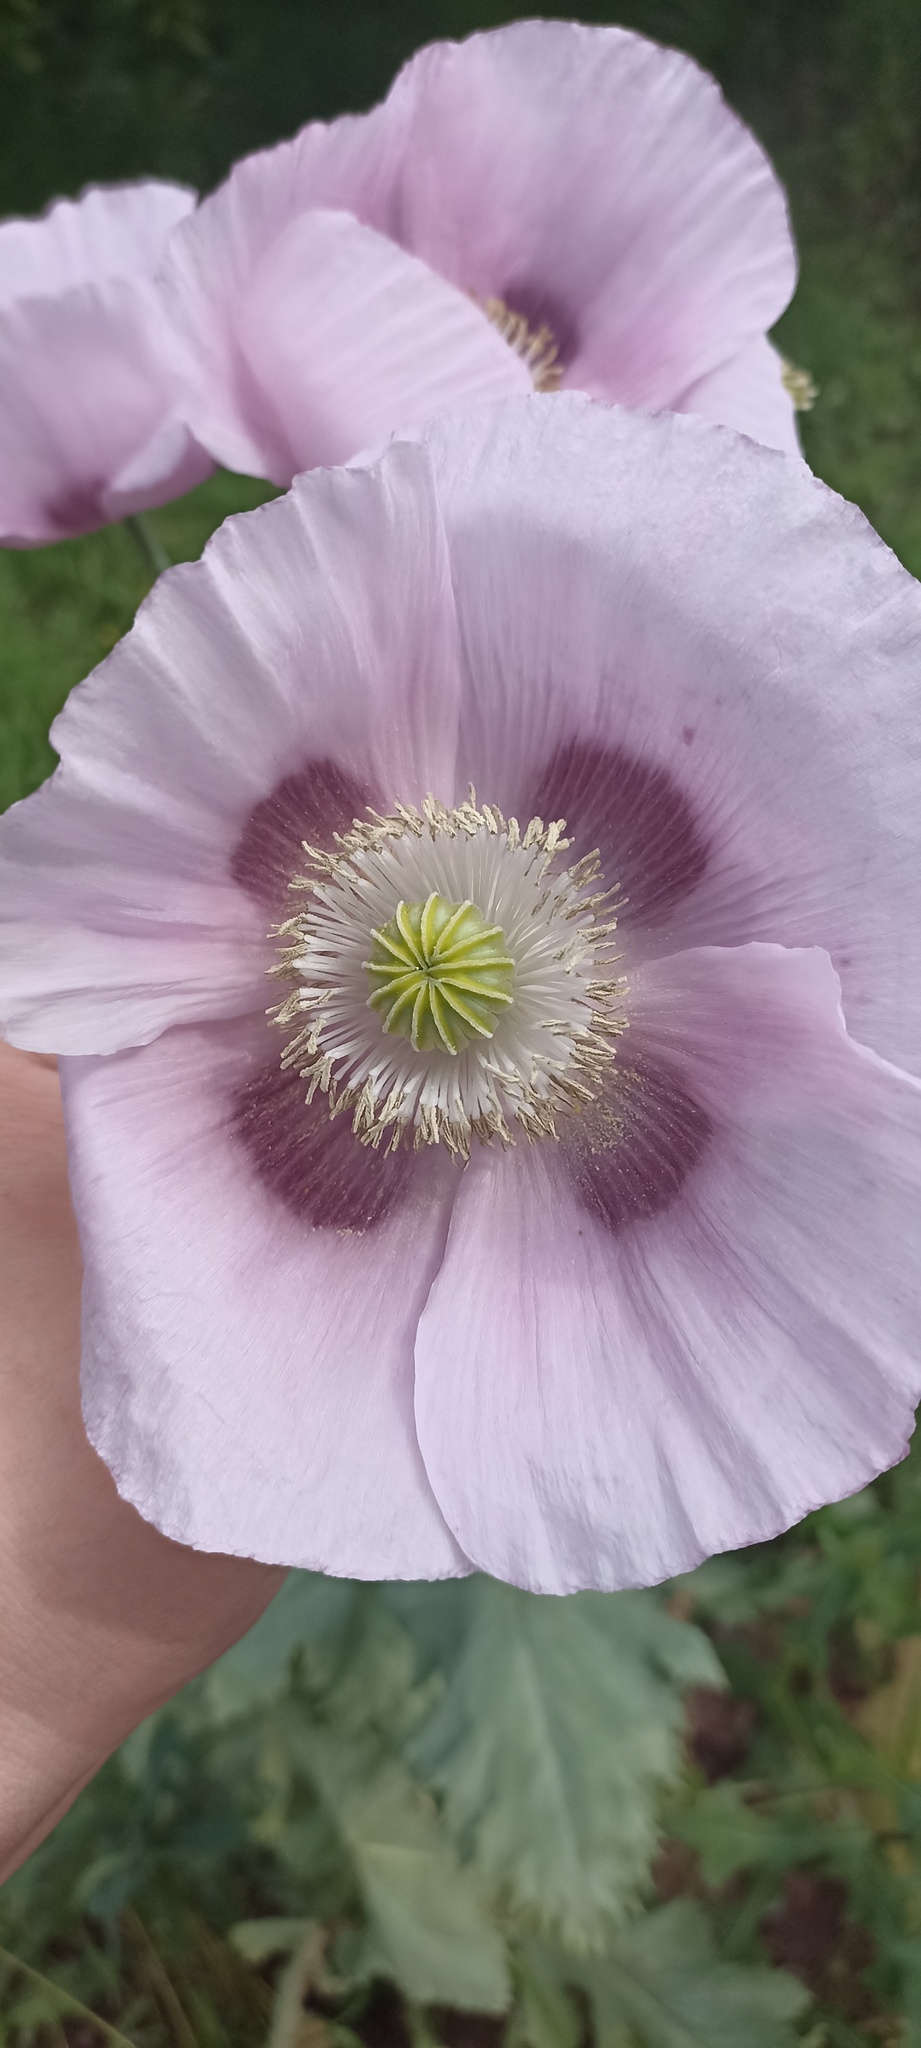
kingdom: Plantae
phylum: Tracheophyta
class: Magnoliopsida
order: Ranunculales
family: Papaveraceae
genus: Papaver
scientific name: Papaver somniferum
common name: Opium poppy
